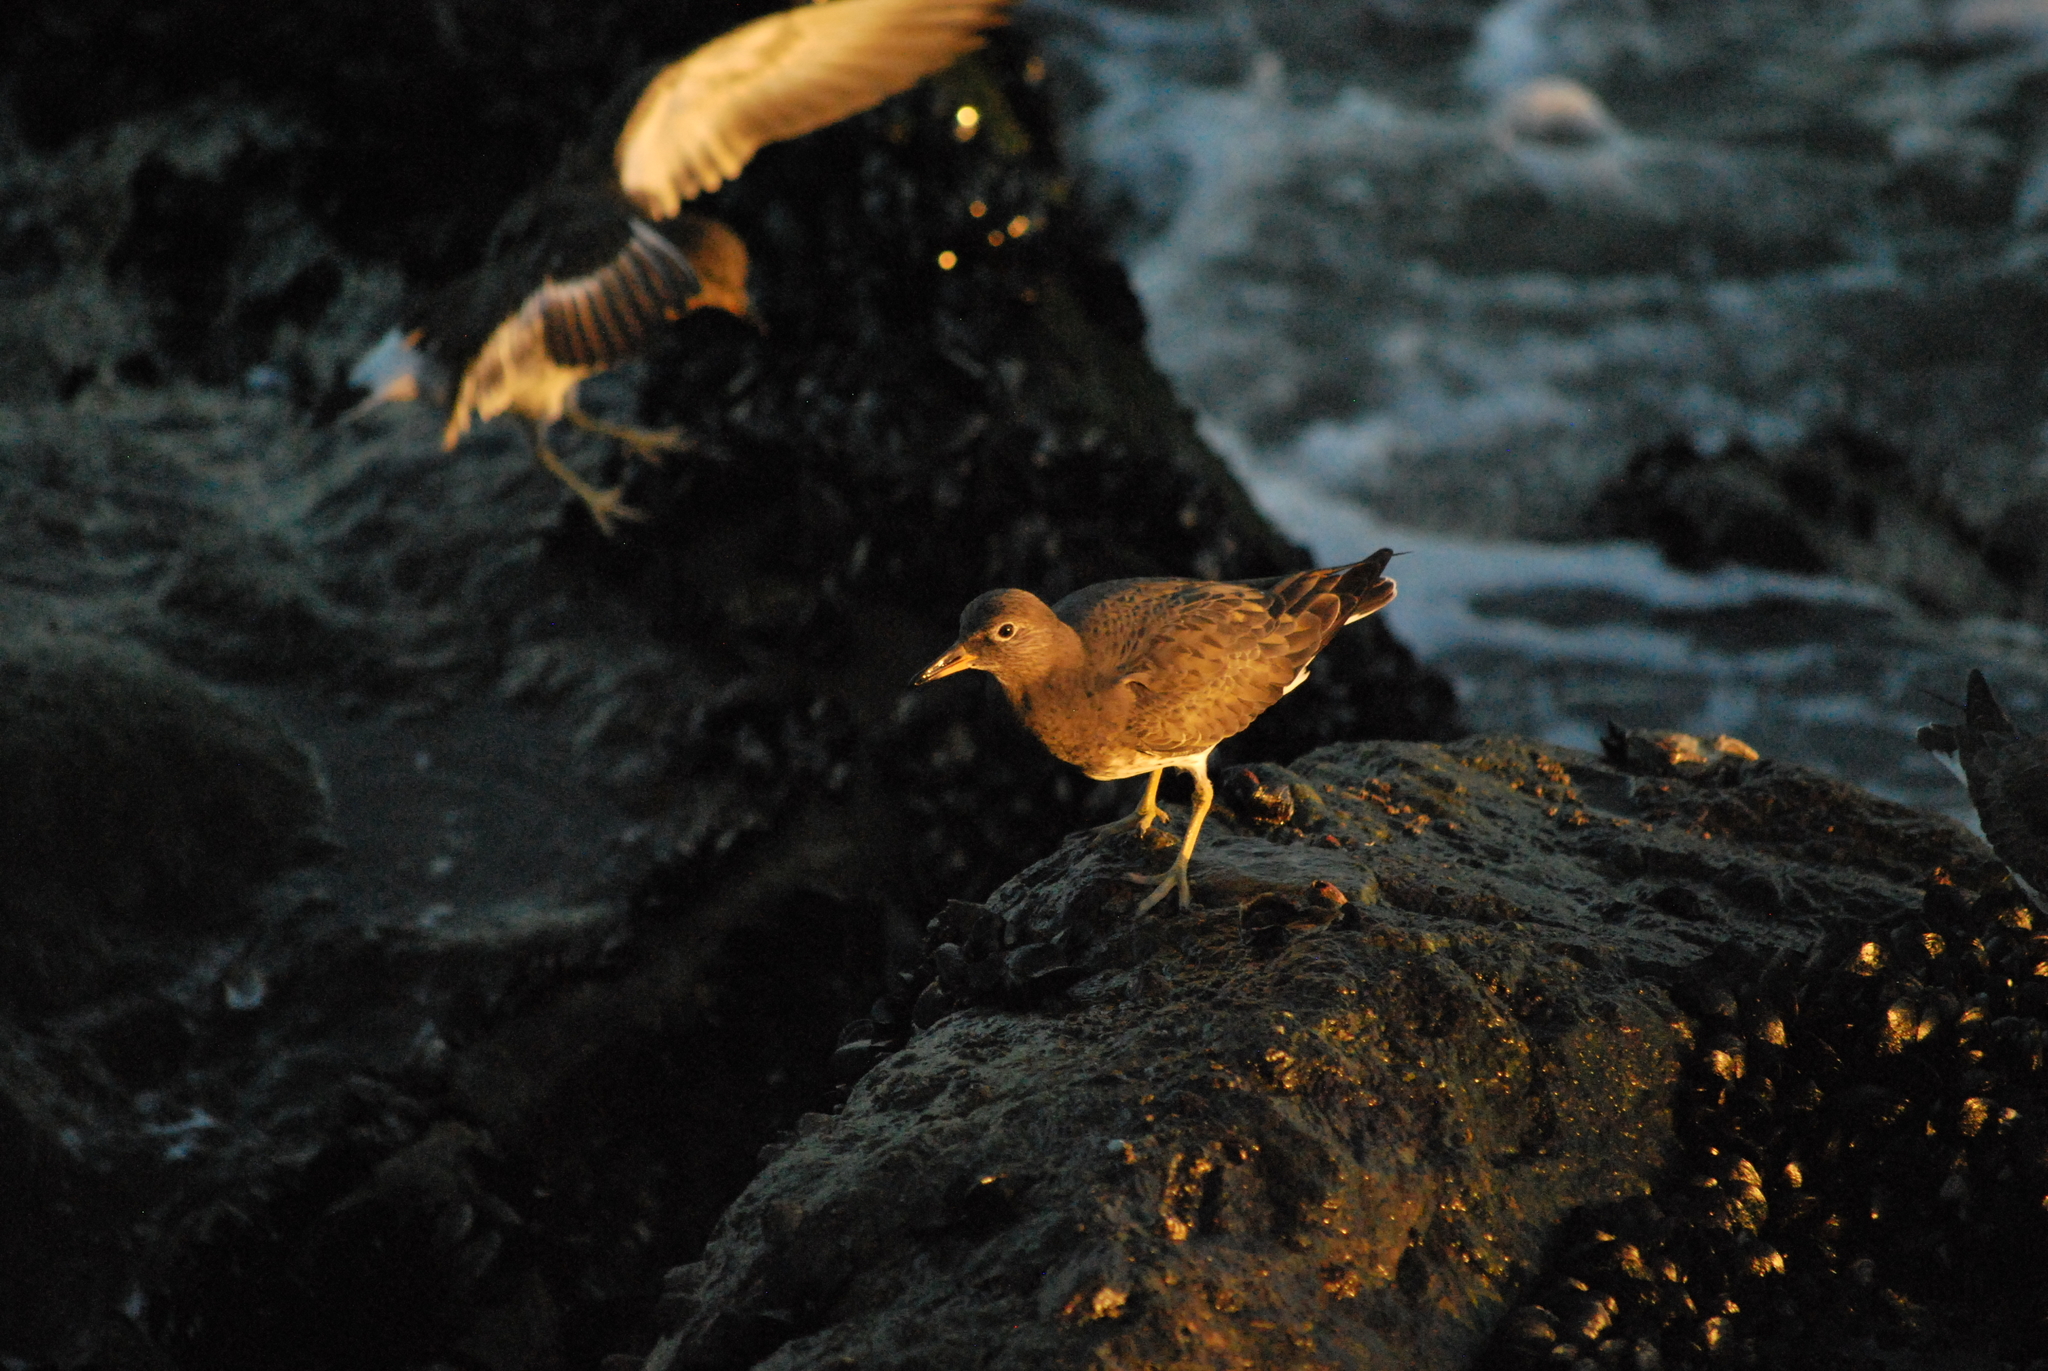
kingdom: Animalia
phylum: Chordata
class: Aves
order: Charadriiformes
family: Scolopacidae
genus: Calidris
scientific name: Calidris virgata
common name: Surfbird
